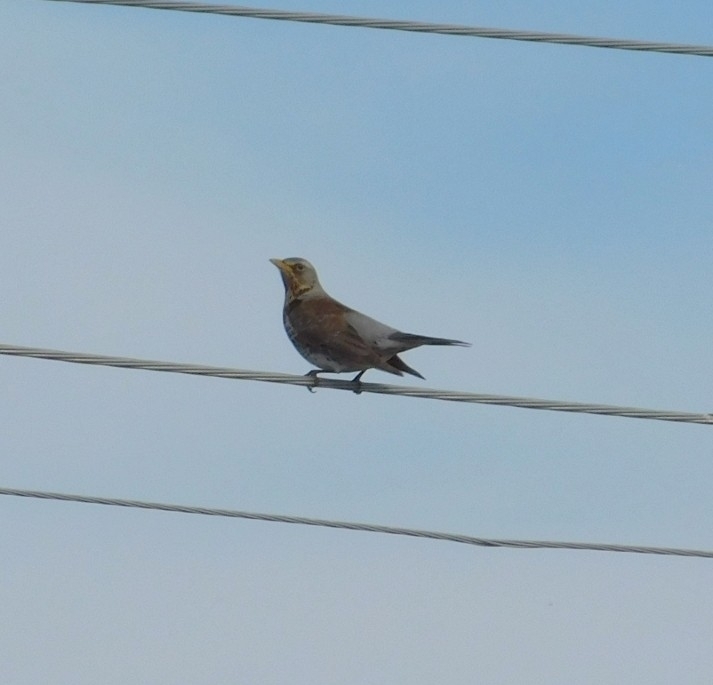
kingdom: Animalia
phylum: Chordata
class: Aves
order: Passeriformes
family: Turdidae
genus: Turdus
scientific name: Turdus pilaris
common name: Fieldfare
